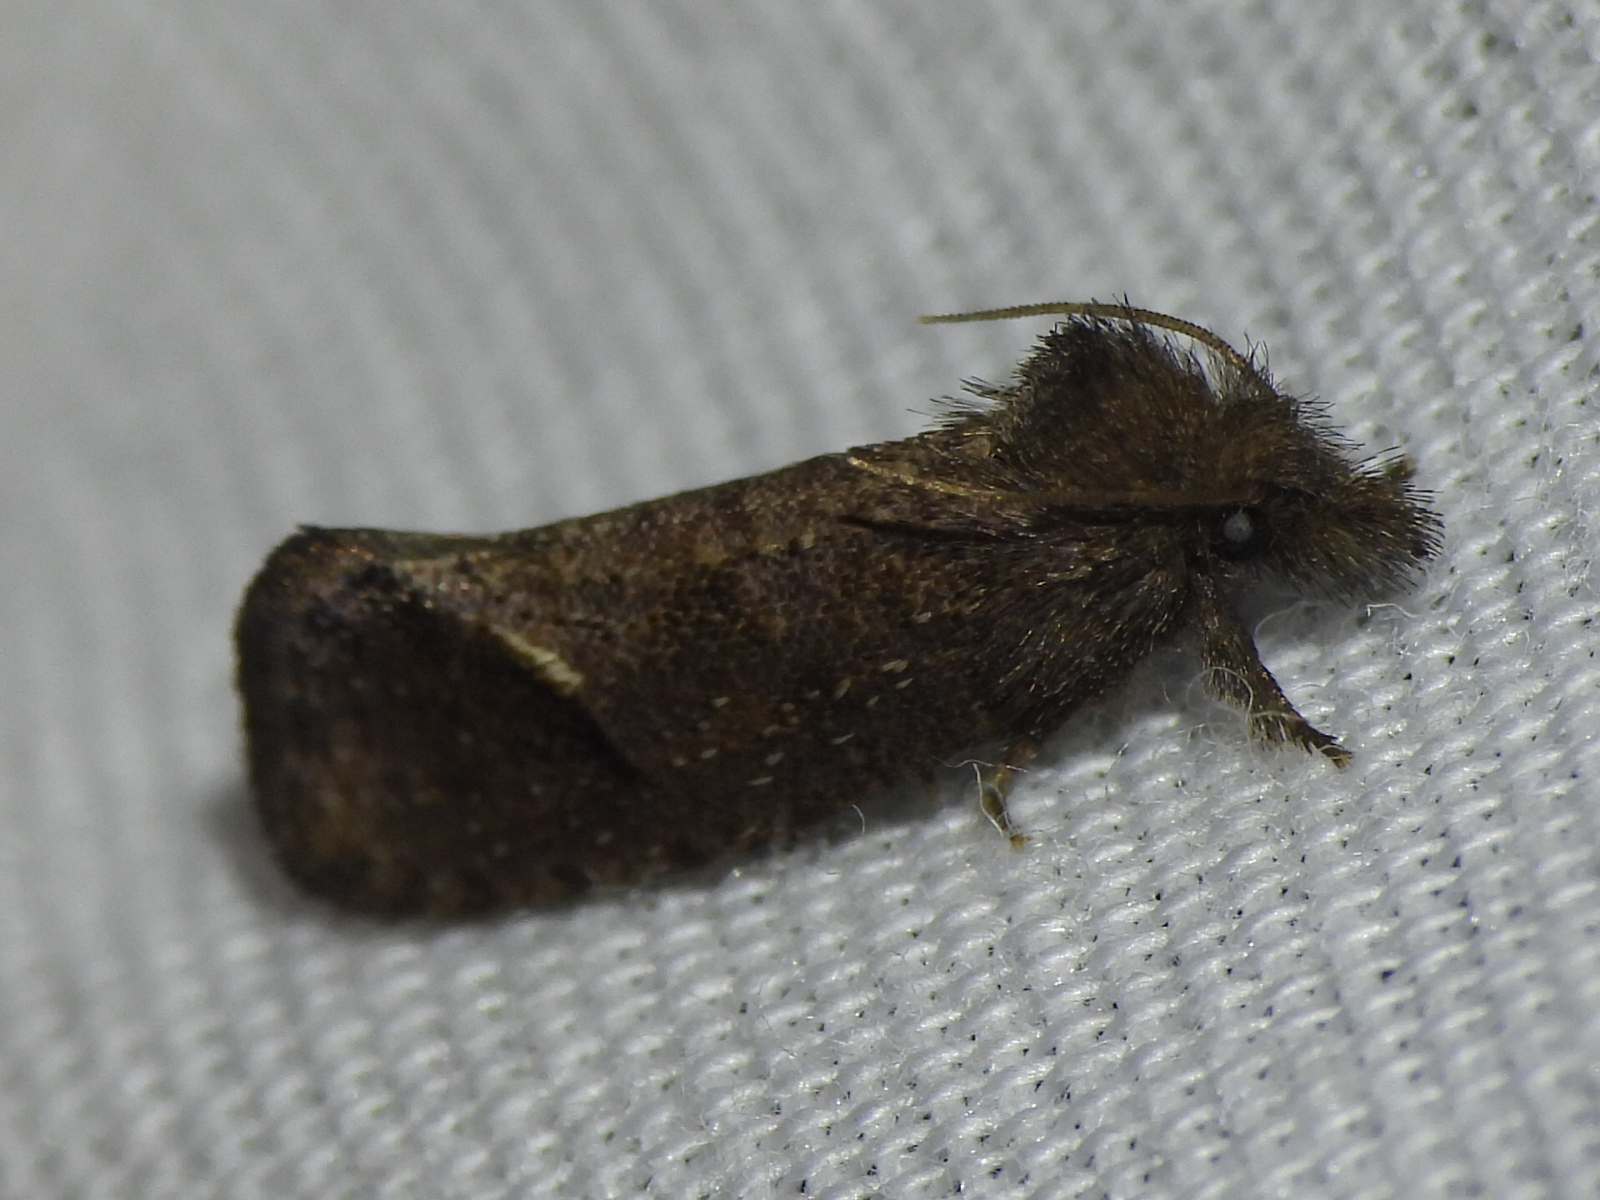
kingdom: Animalia
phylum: Arthropoda
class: Insecta
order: Lepidoptera
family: Tineidae
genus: Acrolophus
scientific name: Acrolophus texanella
